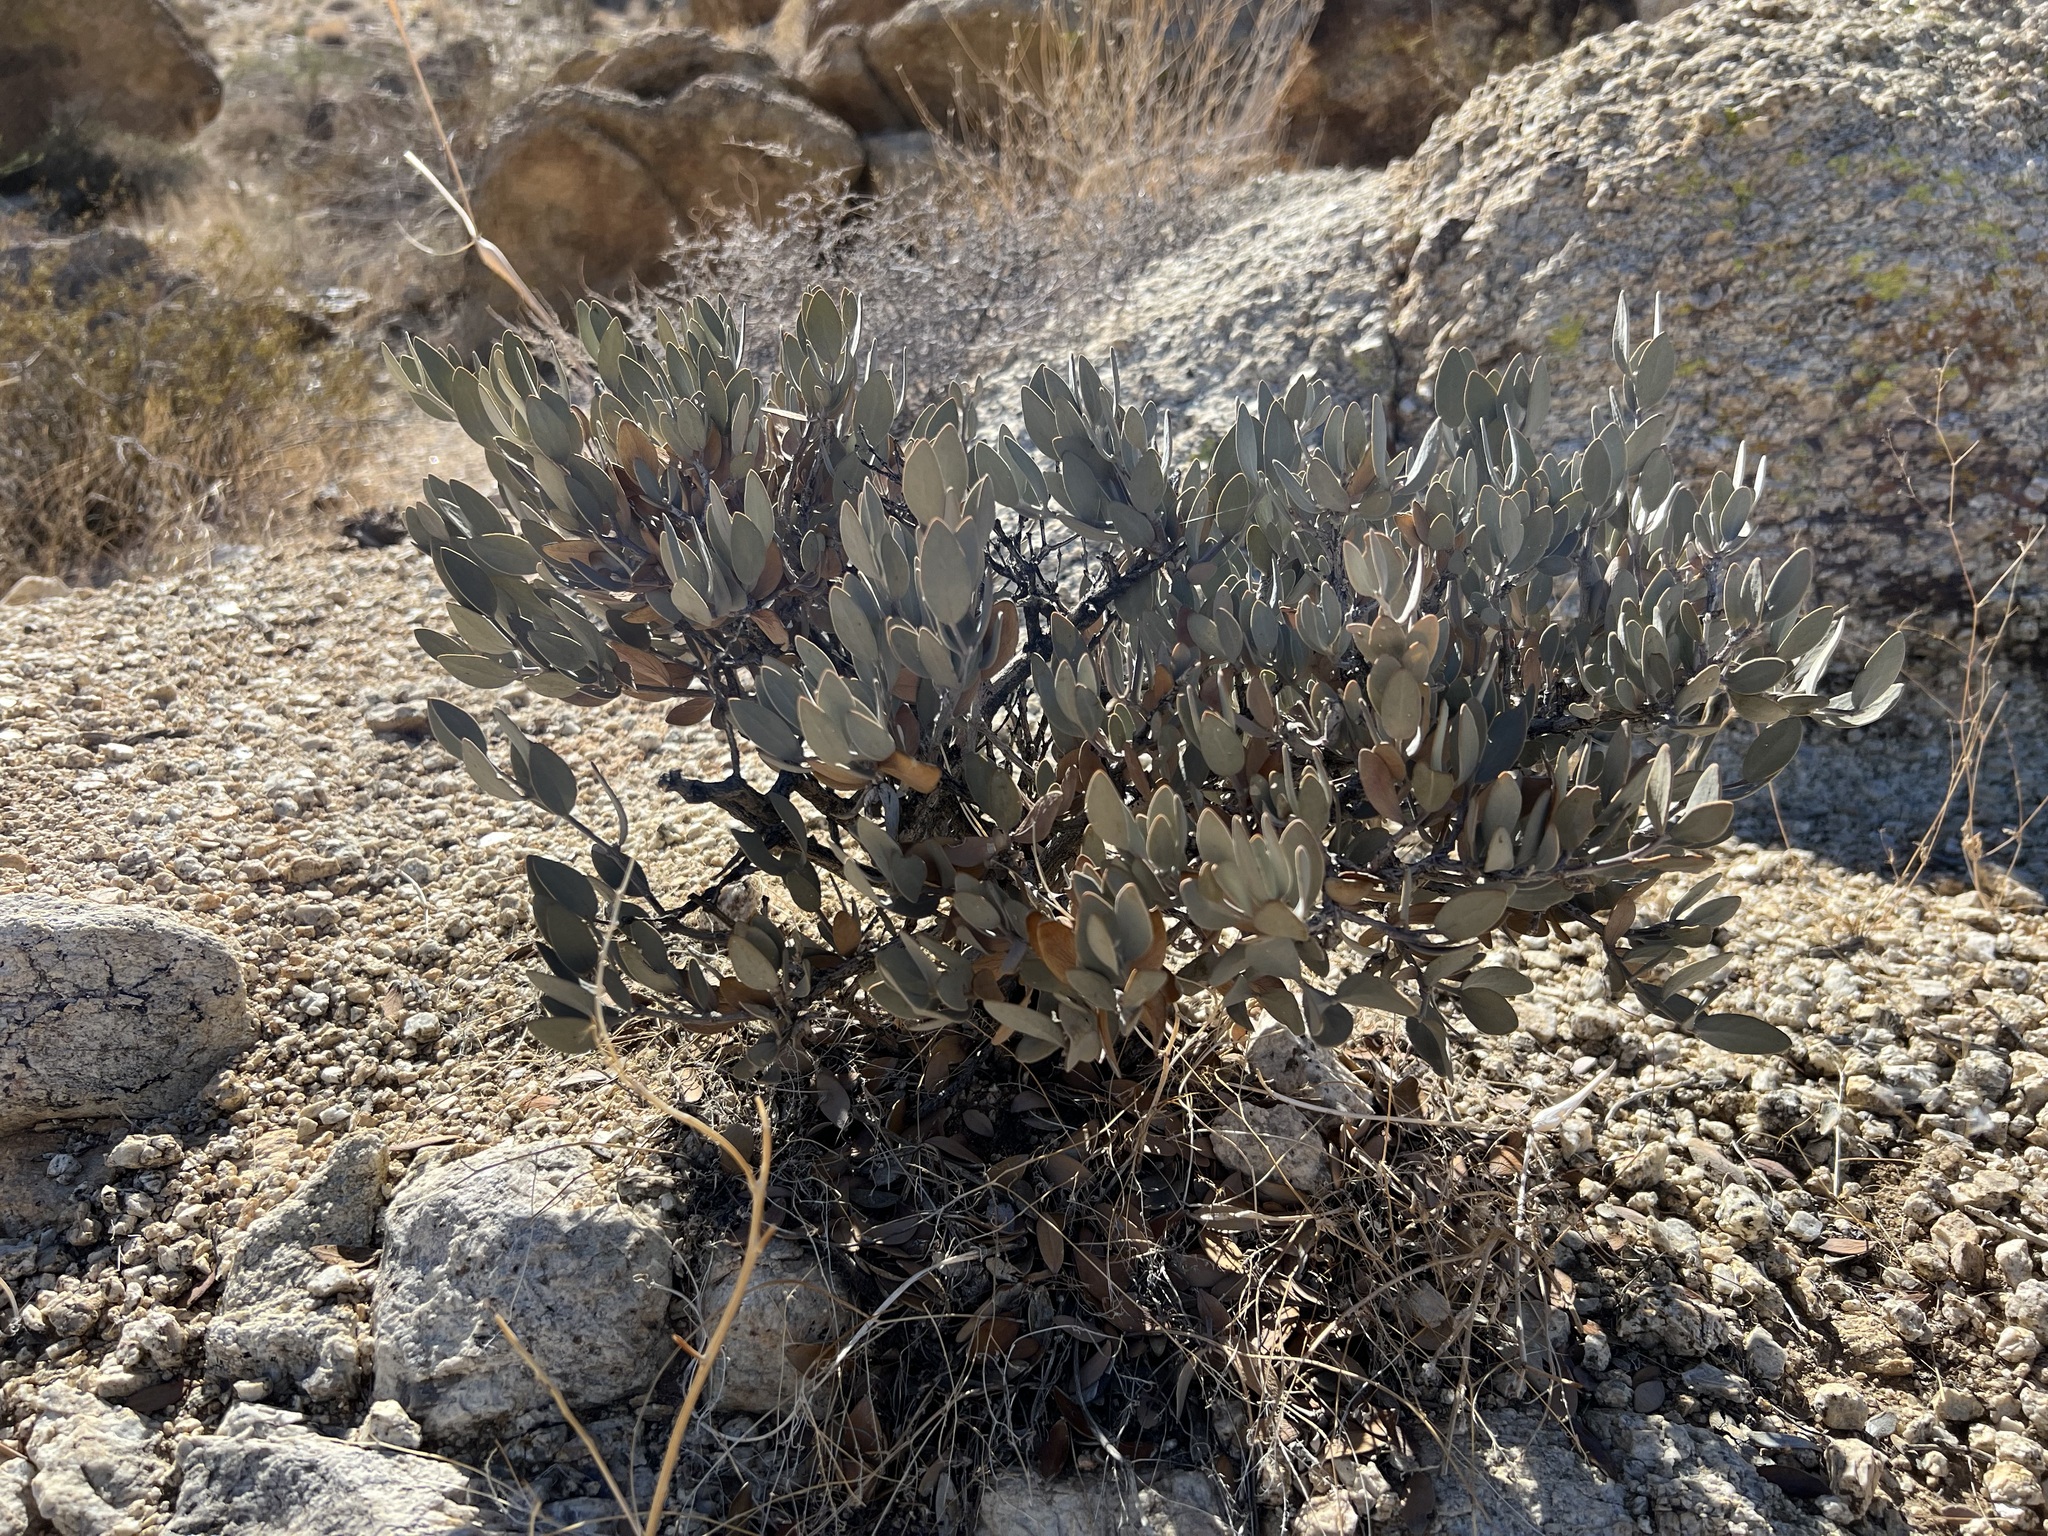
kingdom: Plantae
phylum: Tracheophyta
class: Magnoliopsida
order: Caryophyllales
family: Simmondsiaceae
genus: Simmondsia
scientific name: Simmondsia chinensis
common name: Jojoba
